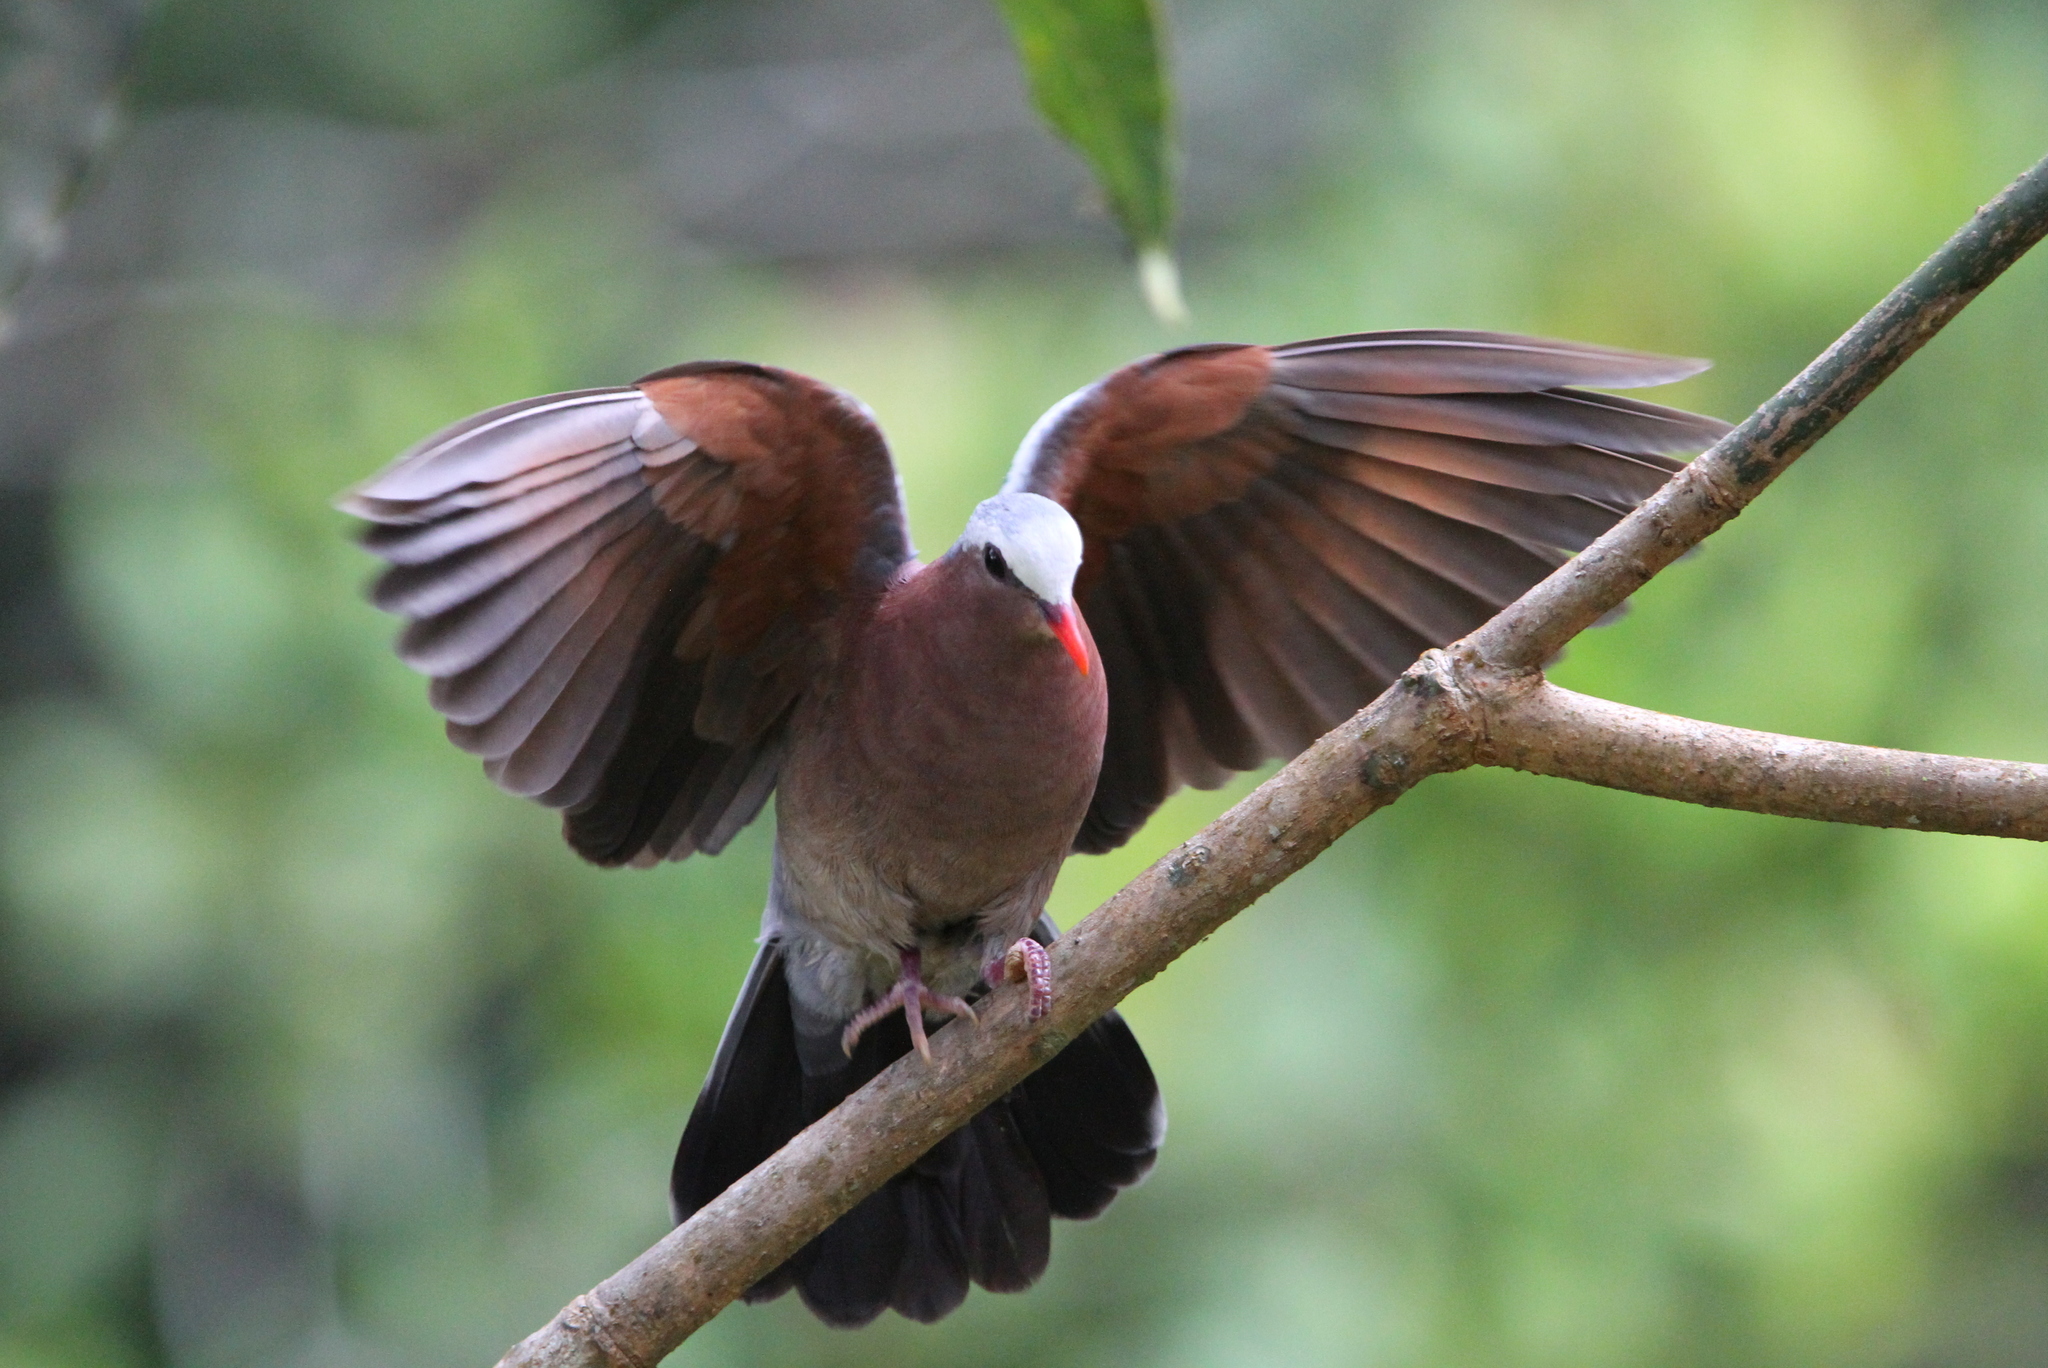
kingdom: Animalia
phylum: Chordata
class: Aves
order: Columbiformes
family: Columbidae
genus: Chalcophaps
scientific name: Chalcophaps indica
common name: Common emerald dove
